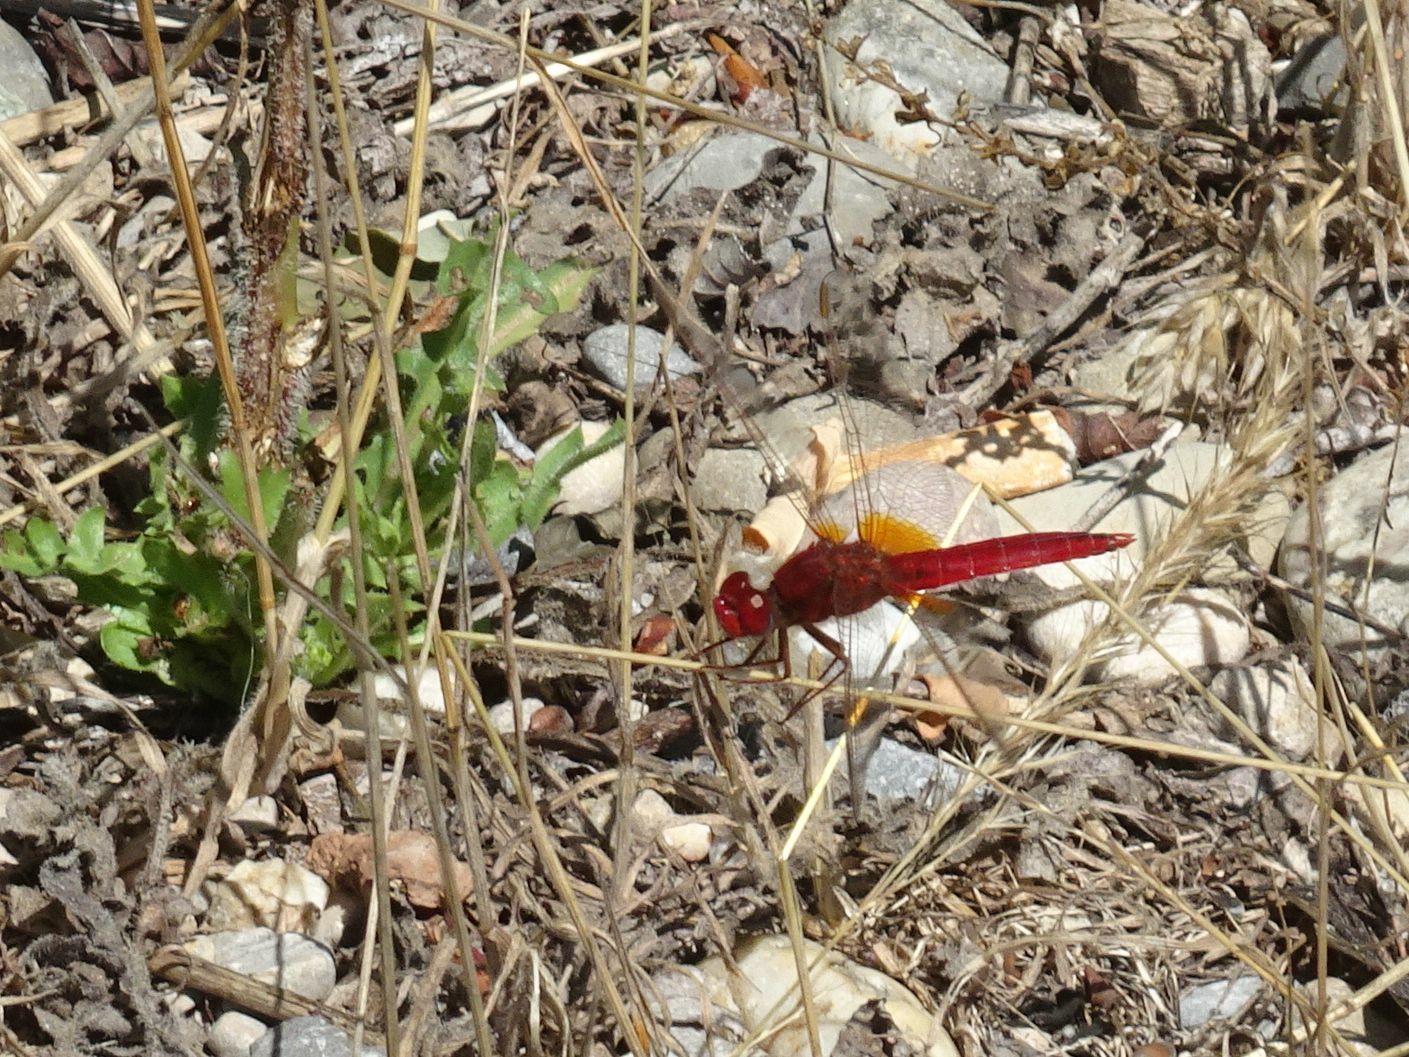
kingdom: Animalia
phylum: Arthropoda
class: Insecta
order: Odonata
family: Libellulidae
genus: Crocothemis
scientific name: Crocothemis erythraea
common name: Scarlet dragonfly
